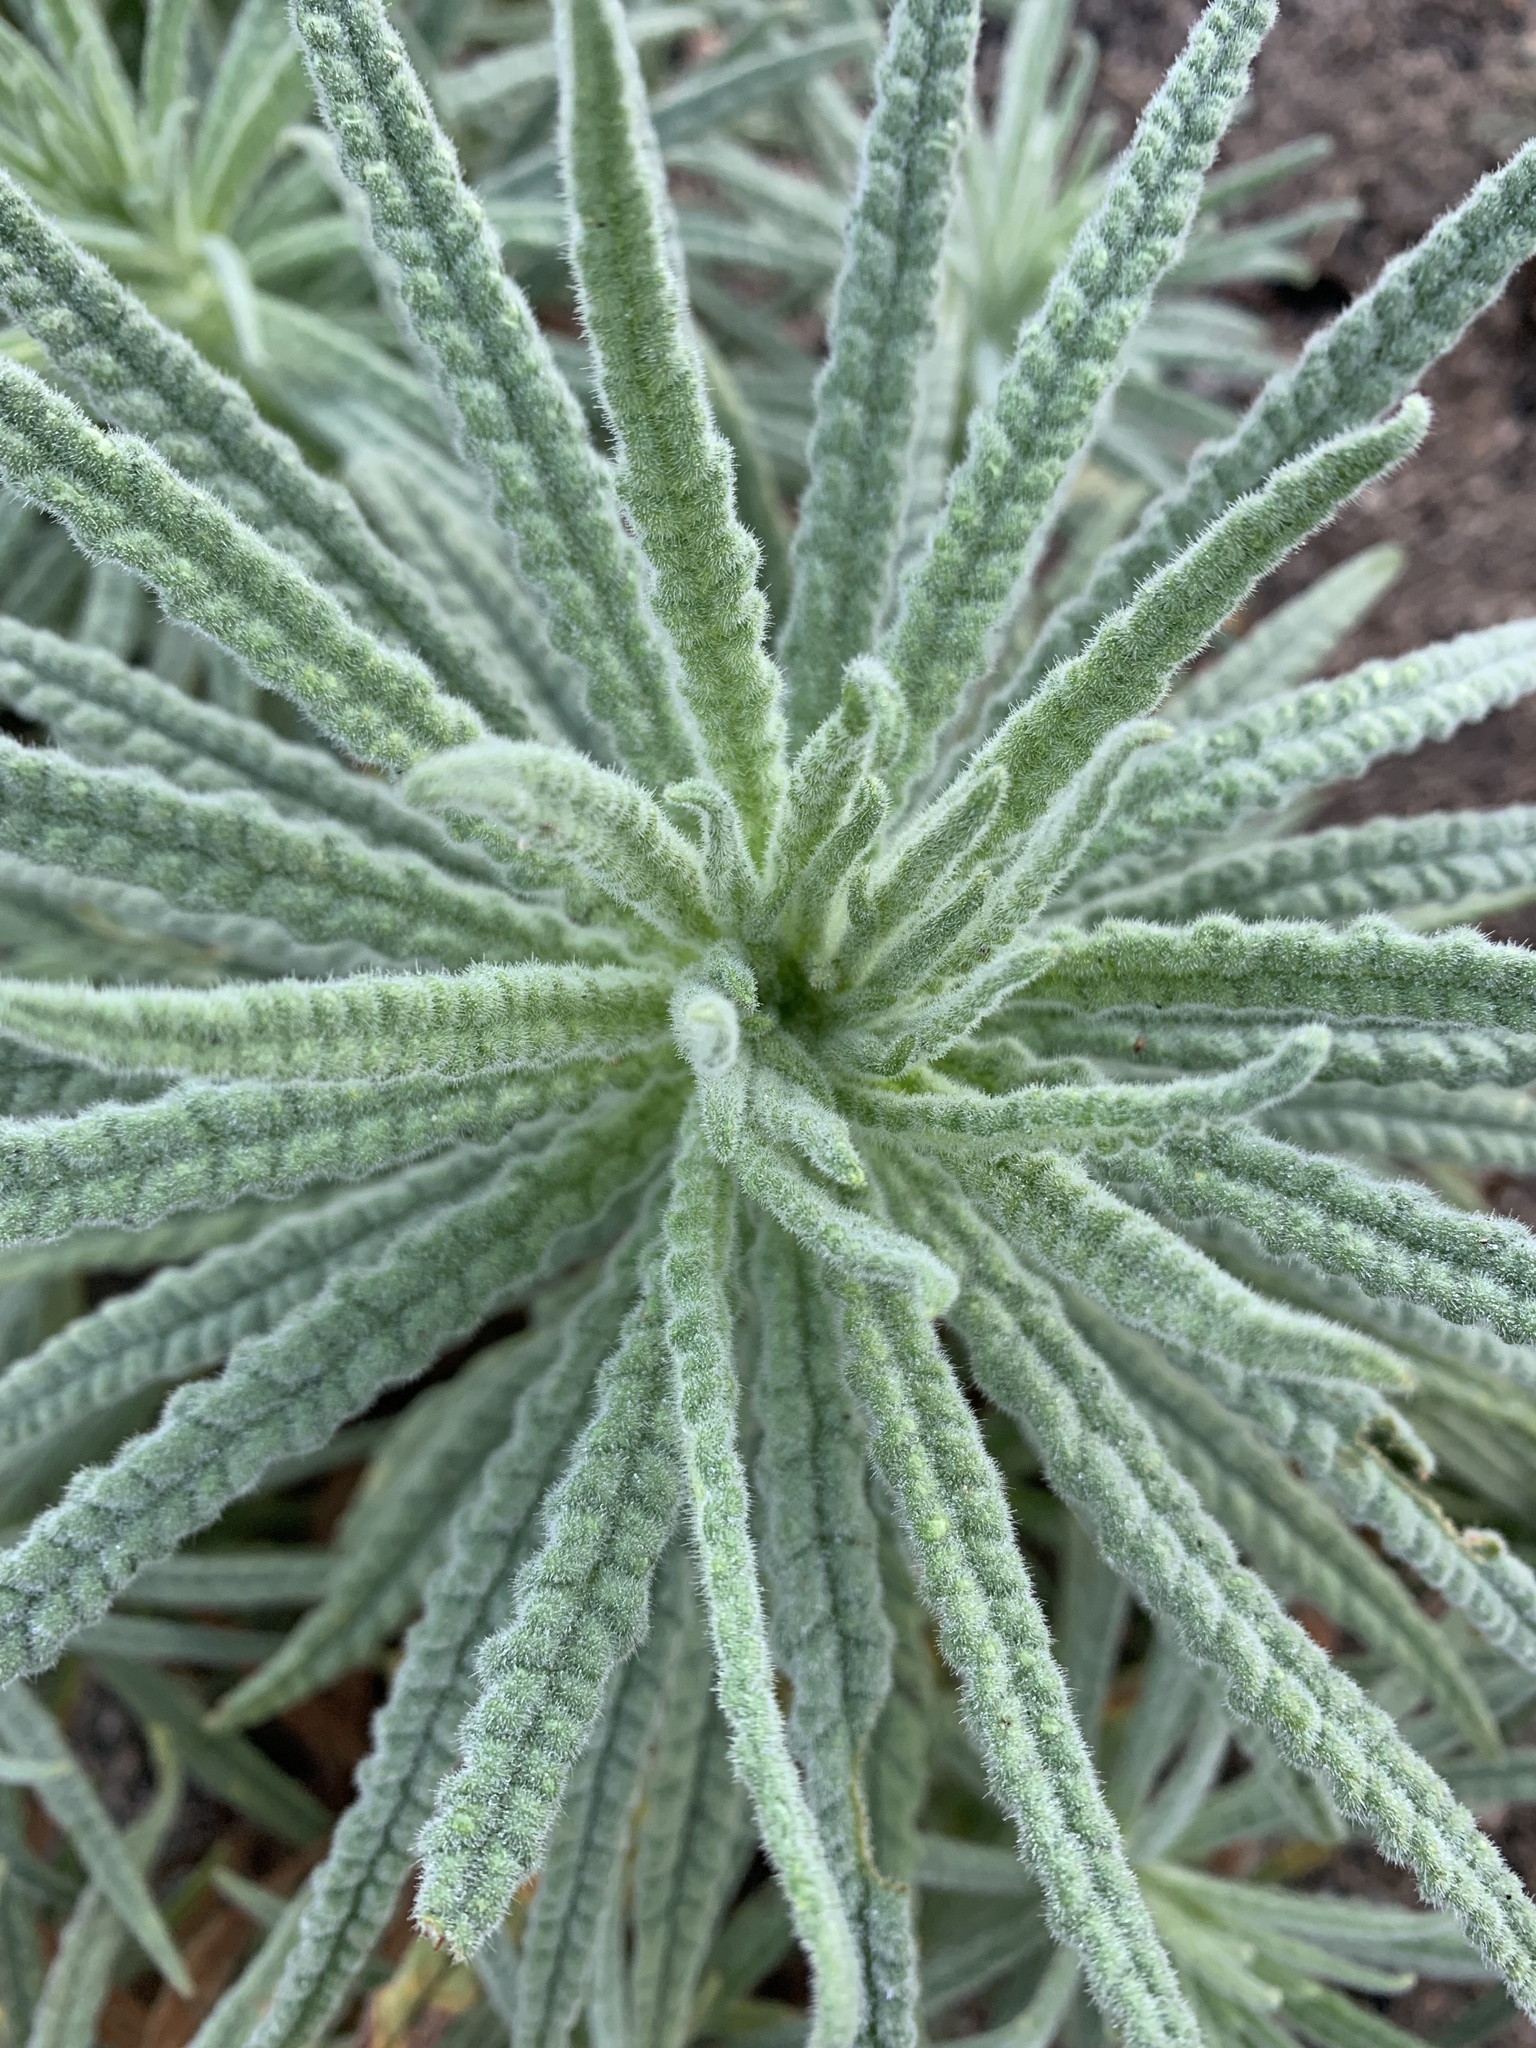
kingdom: Plantae
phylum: Tracheophyta
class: Magnoliopsida
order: Boraginales
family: Namaceae
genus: Turricula
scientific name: Turricula parryi
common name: Poodle-dog-bush
